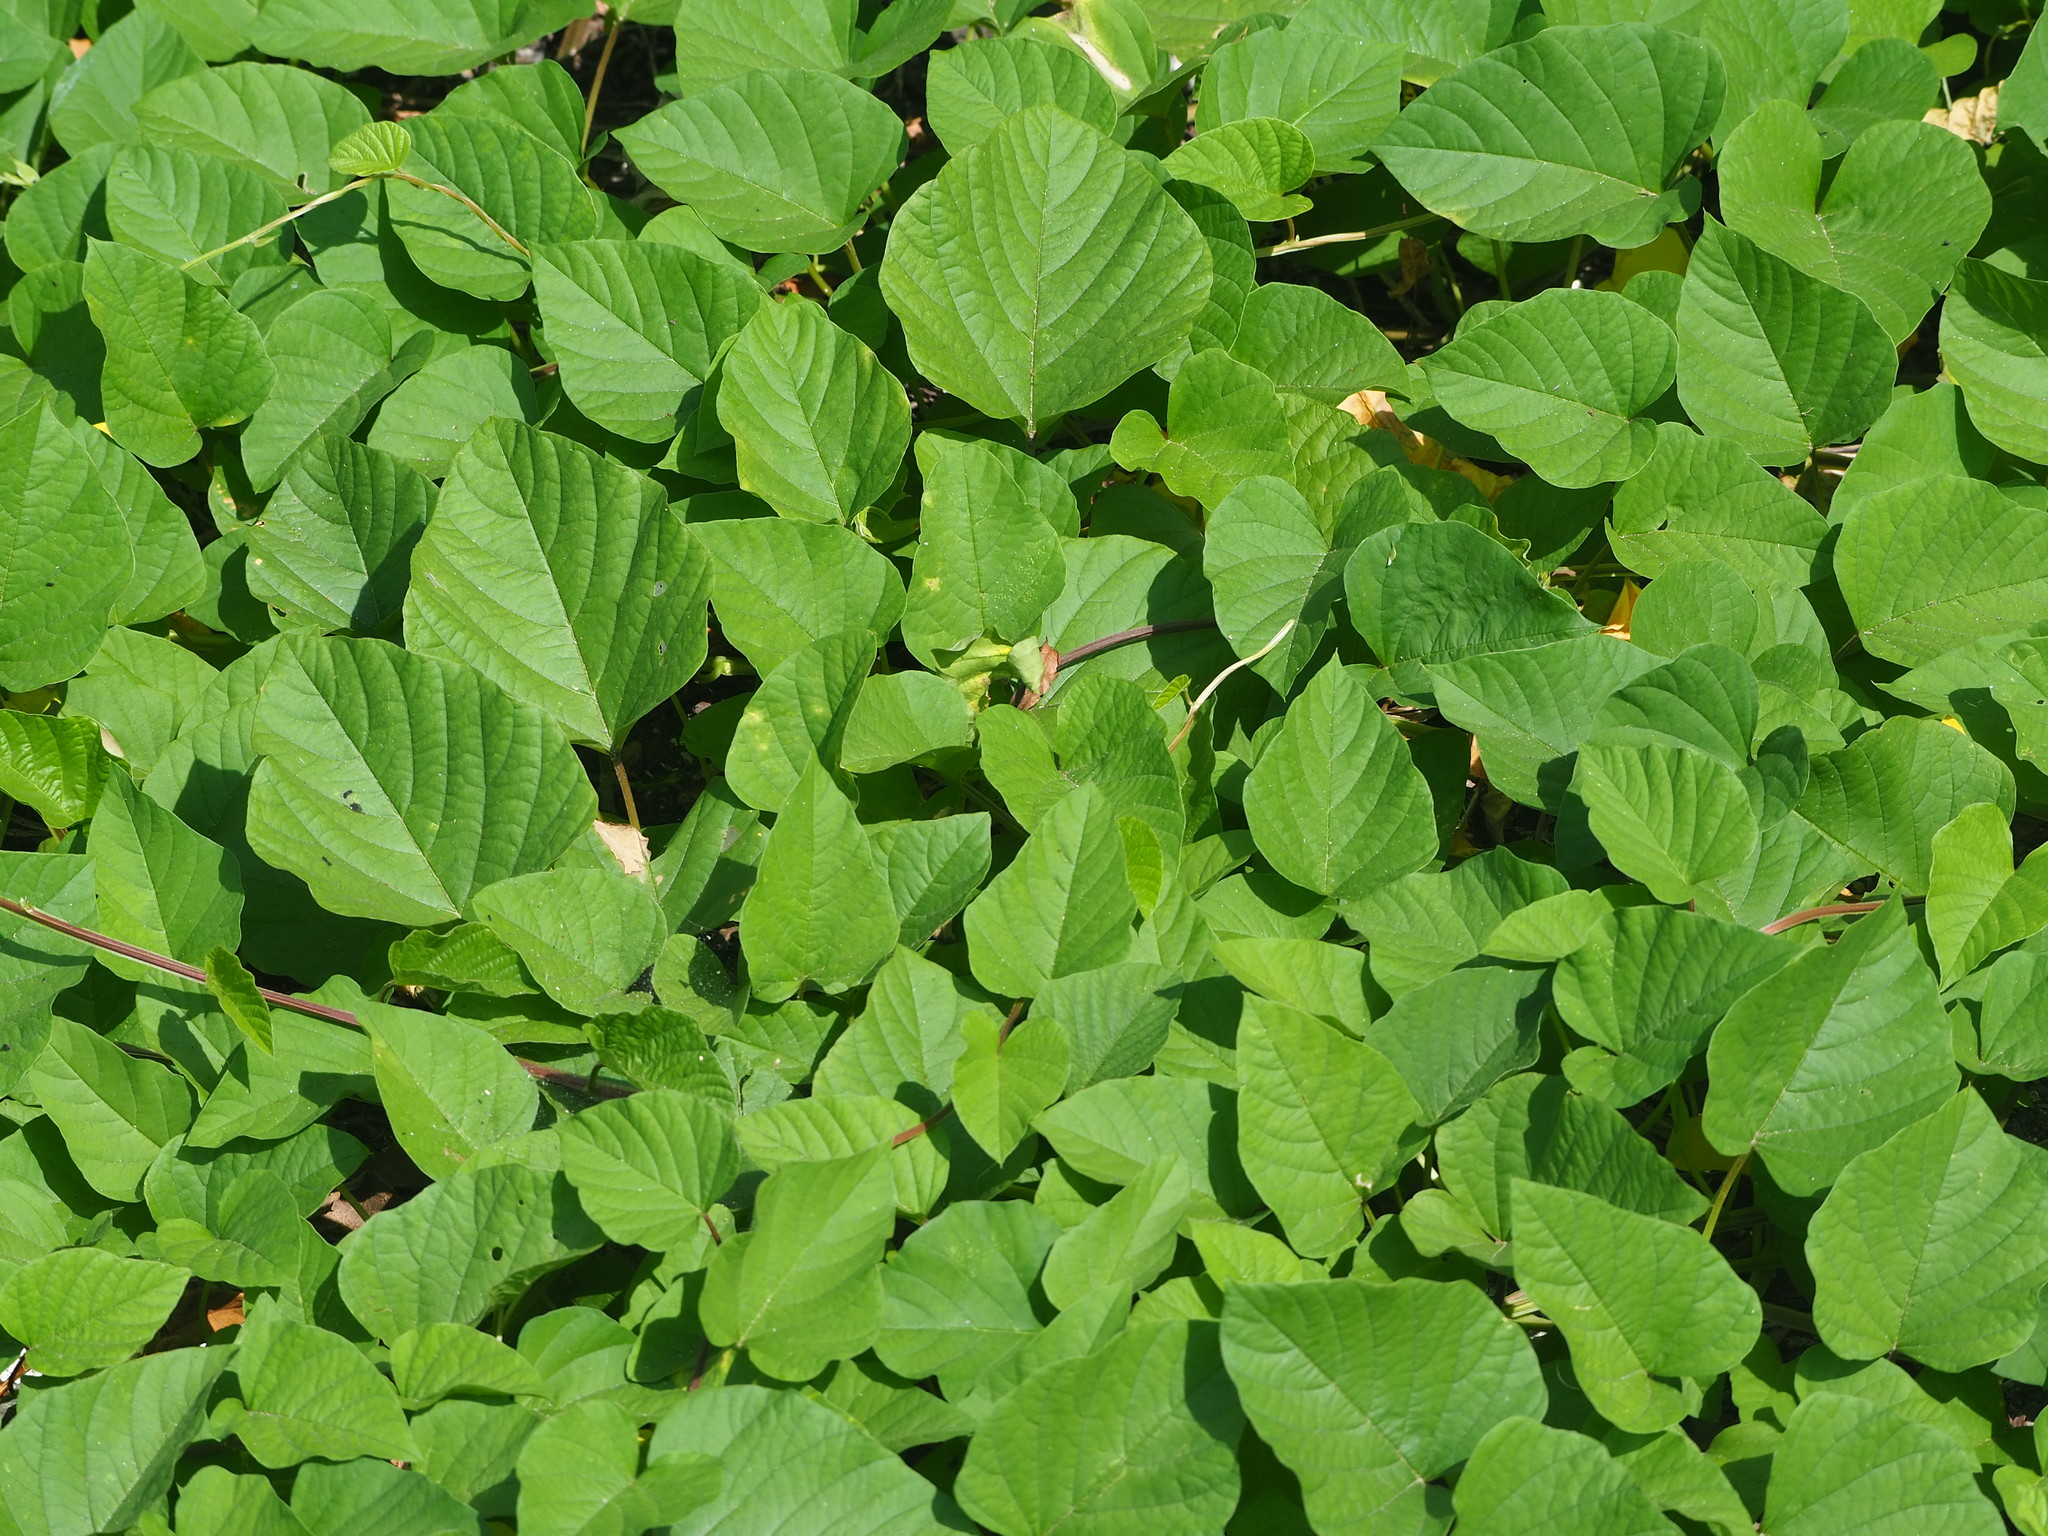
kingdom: Plantae
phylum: Tracheophyta
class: Magnoliopsida
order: Solanales
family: Convolvulaceae
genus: Operculina
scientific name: Operculina turpethum
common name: Transparent wood-rose
